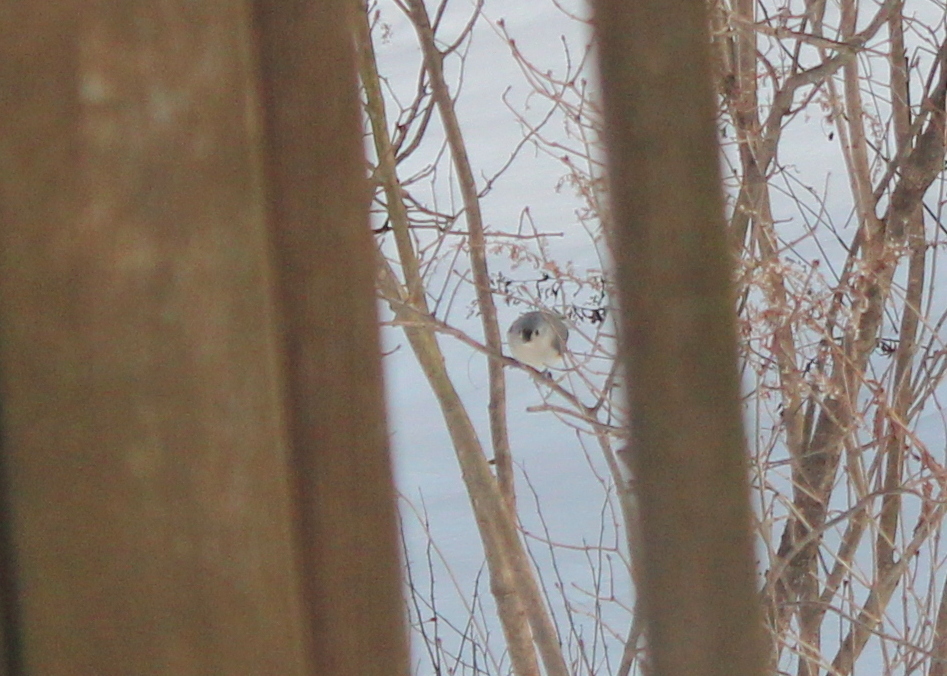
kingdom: Animalia
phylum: Chordata
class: Aves
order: Passeriformes
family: Paridae
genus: Baeolophus
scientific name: Baeolophus bicolor
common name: Tufted titmouse
